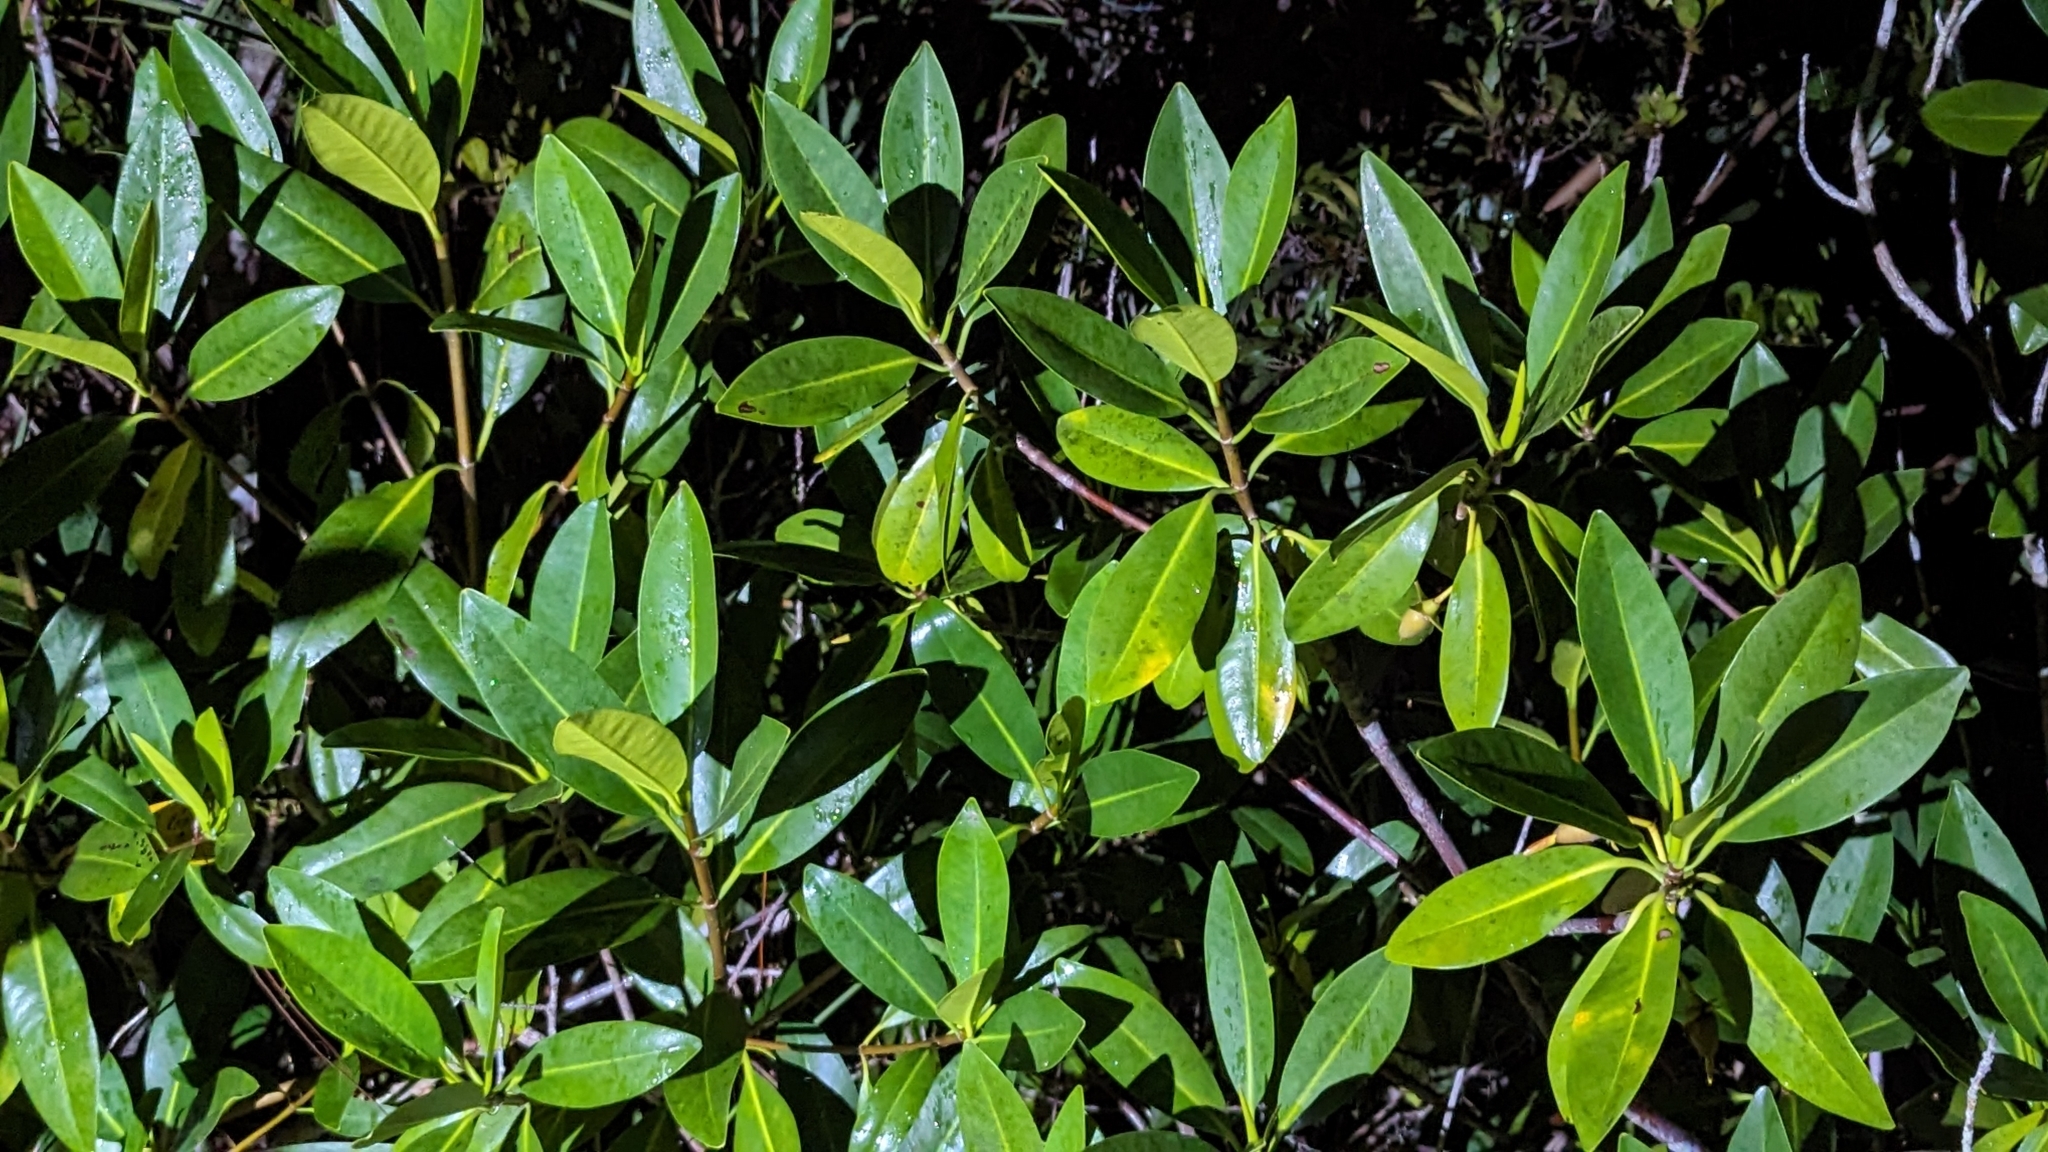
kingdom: Plantae
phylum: Tracheophyta
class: Magnoliopsida
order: Malpighiales
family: Rhizophoraceae
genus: Rhizophora
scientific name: Rhizophora mangle
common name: Red mangrove
